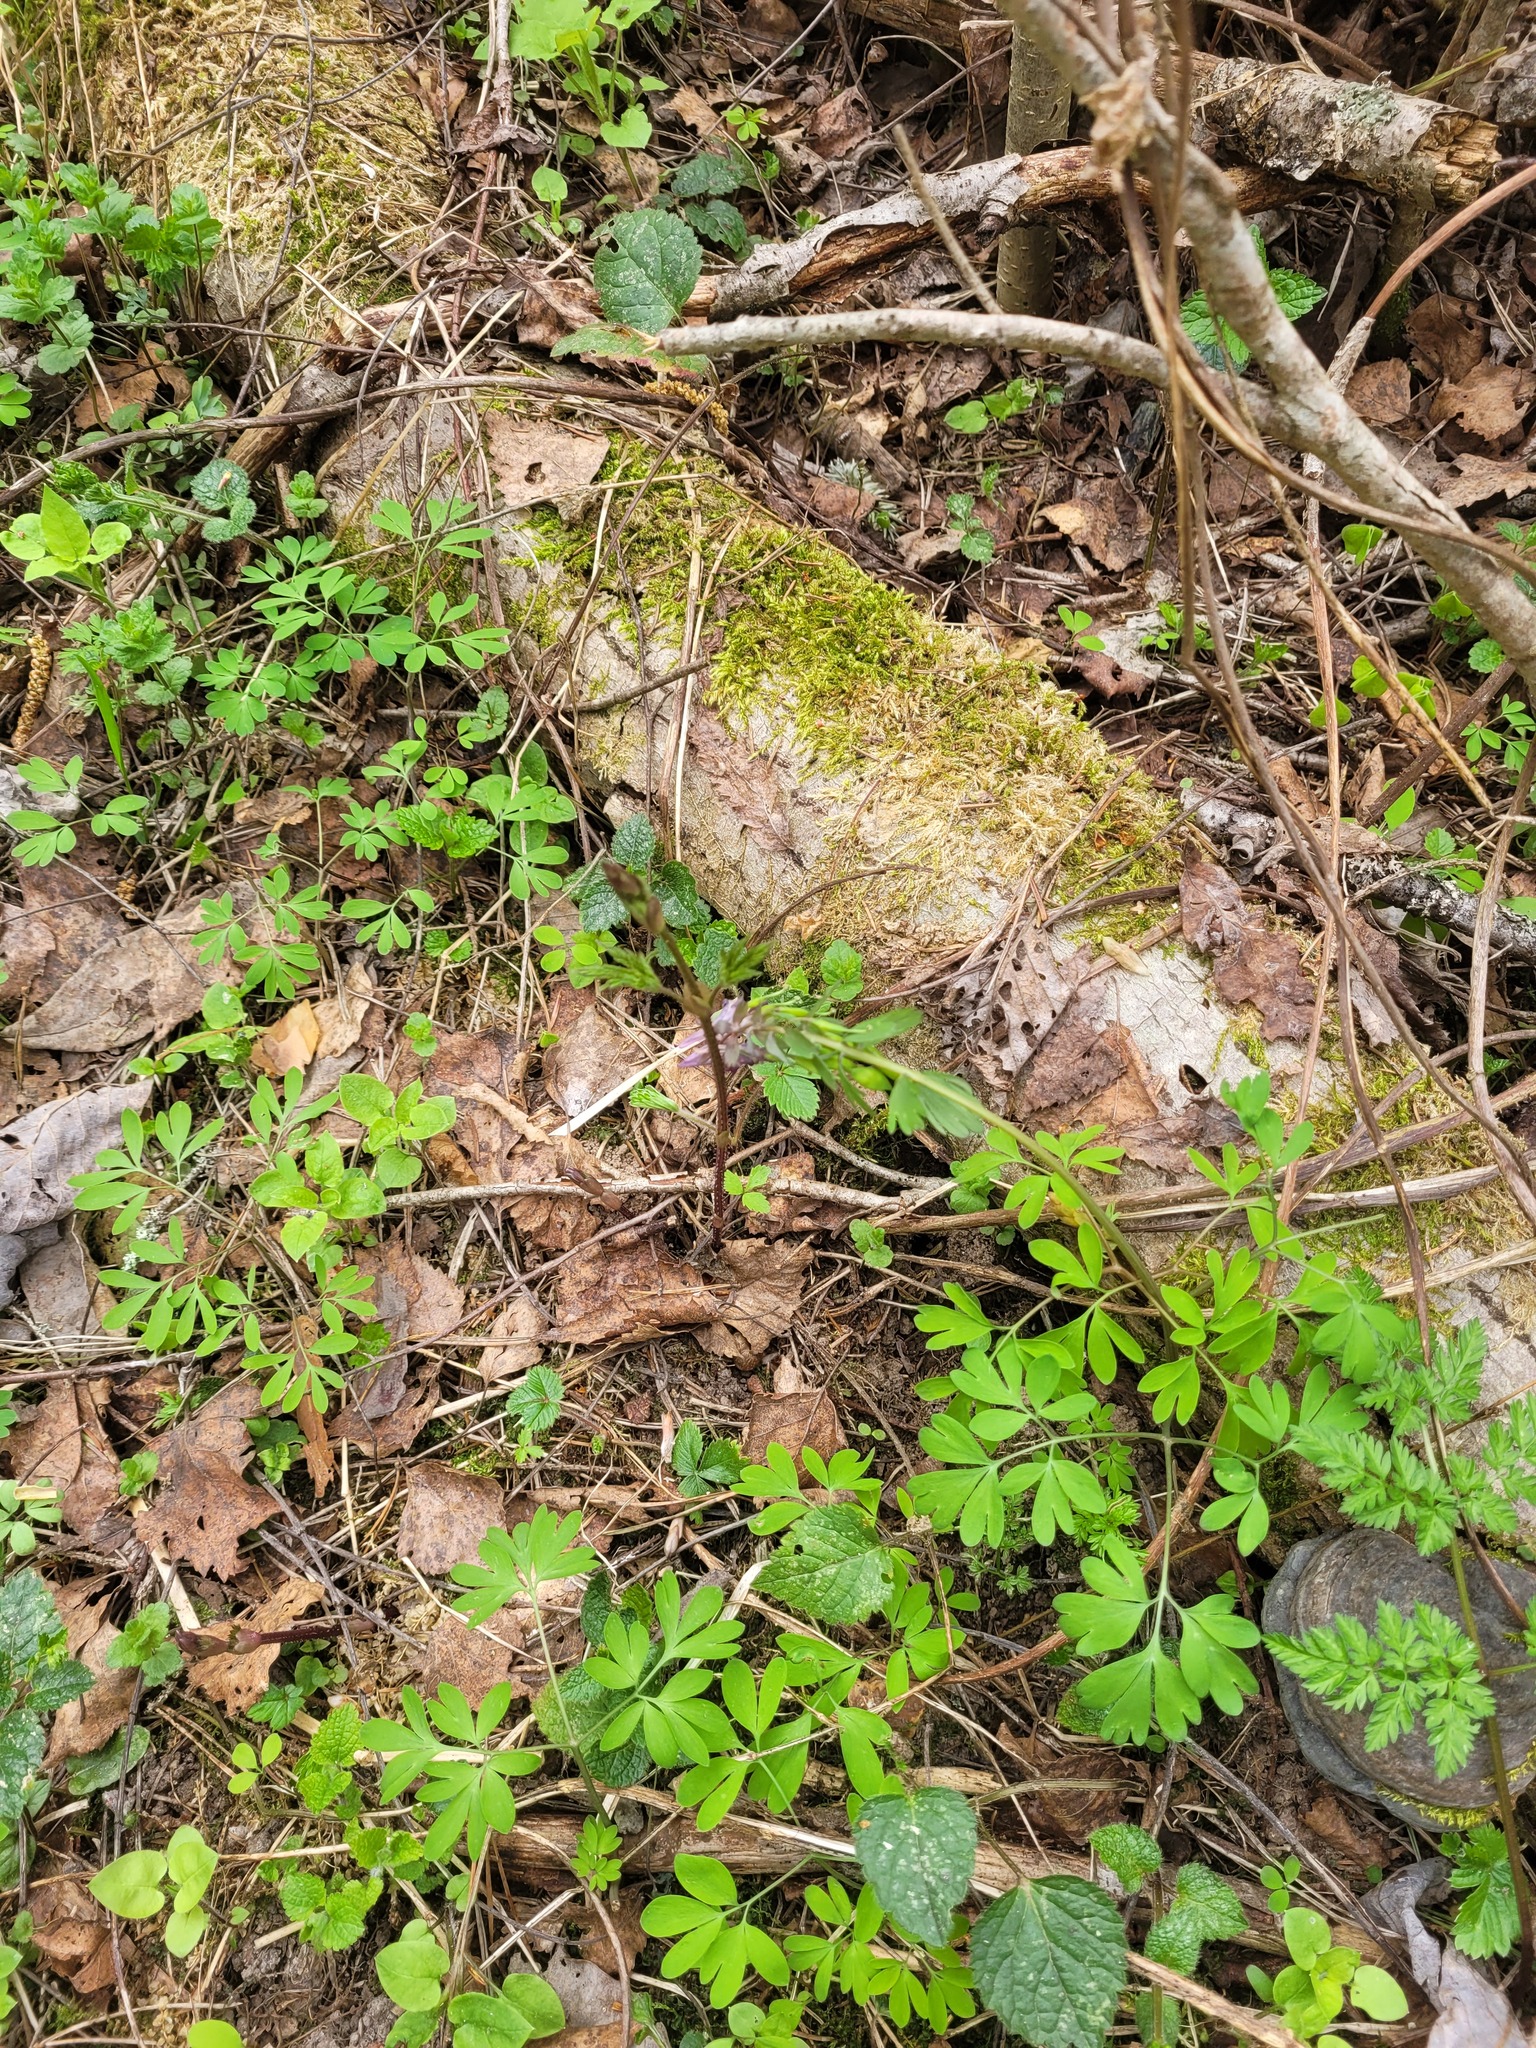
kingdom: Plantae
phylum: Tracheophyta
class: Magnoliopsida
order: Rosales
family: Cannabaceae
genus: Humulus
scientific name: Humulus lupulus
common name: Hop
